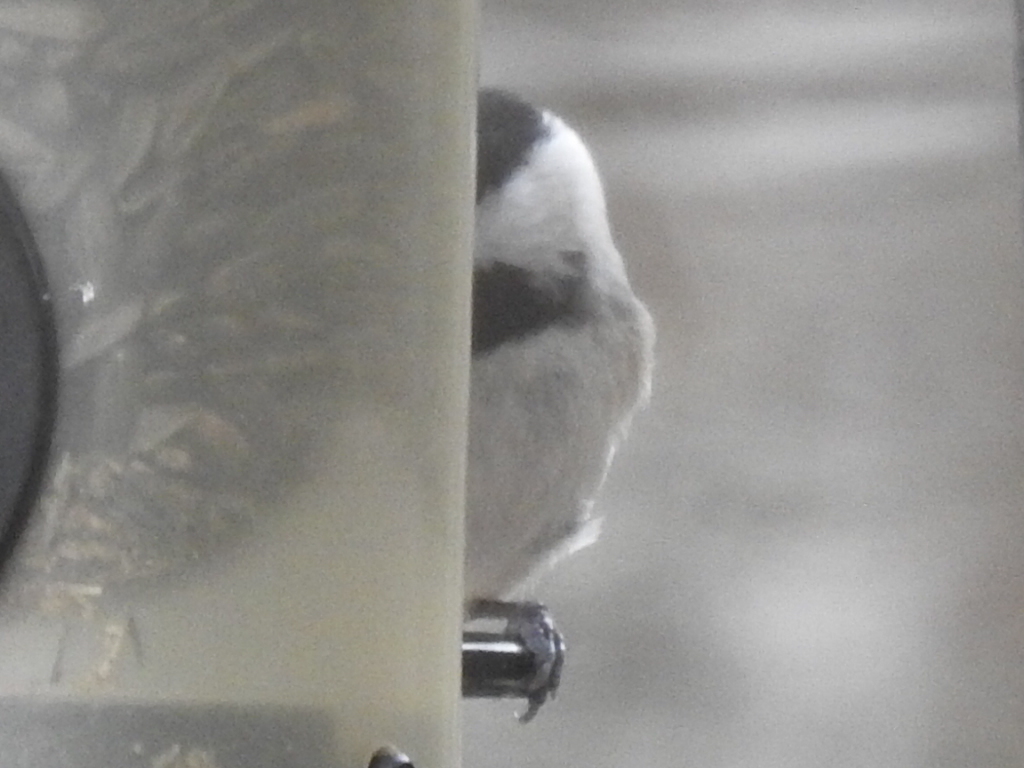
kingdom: Animalia
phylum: Chordata
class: Aves
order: Passeriformes
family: Paridae
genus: Poecile
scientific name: Poecile carolinensis
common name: Carolina chickadee
